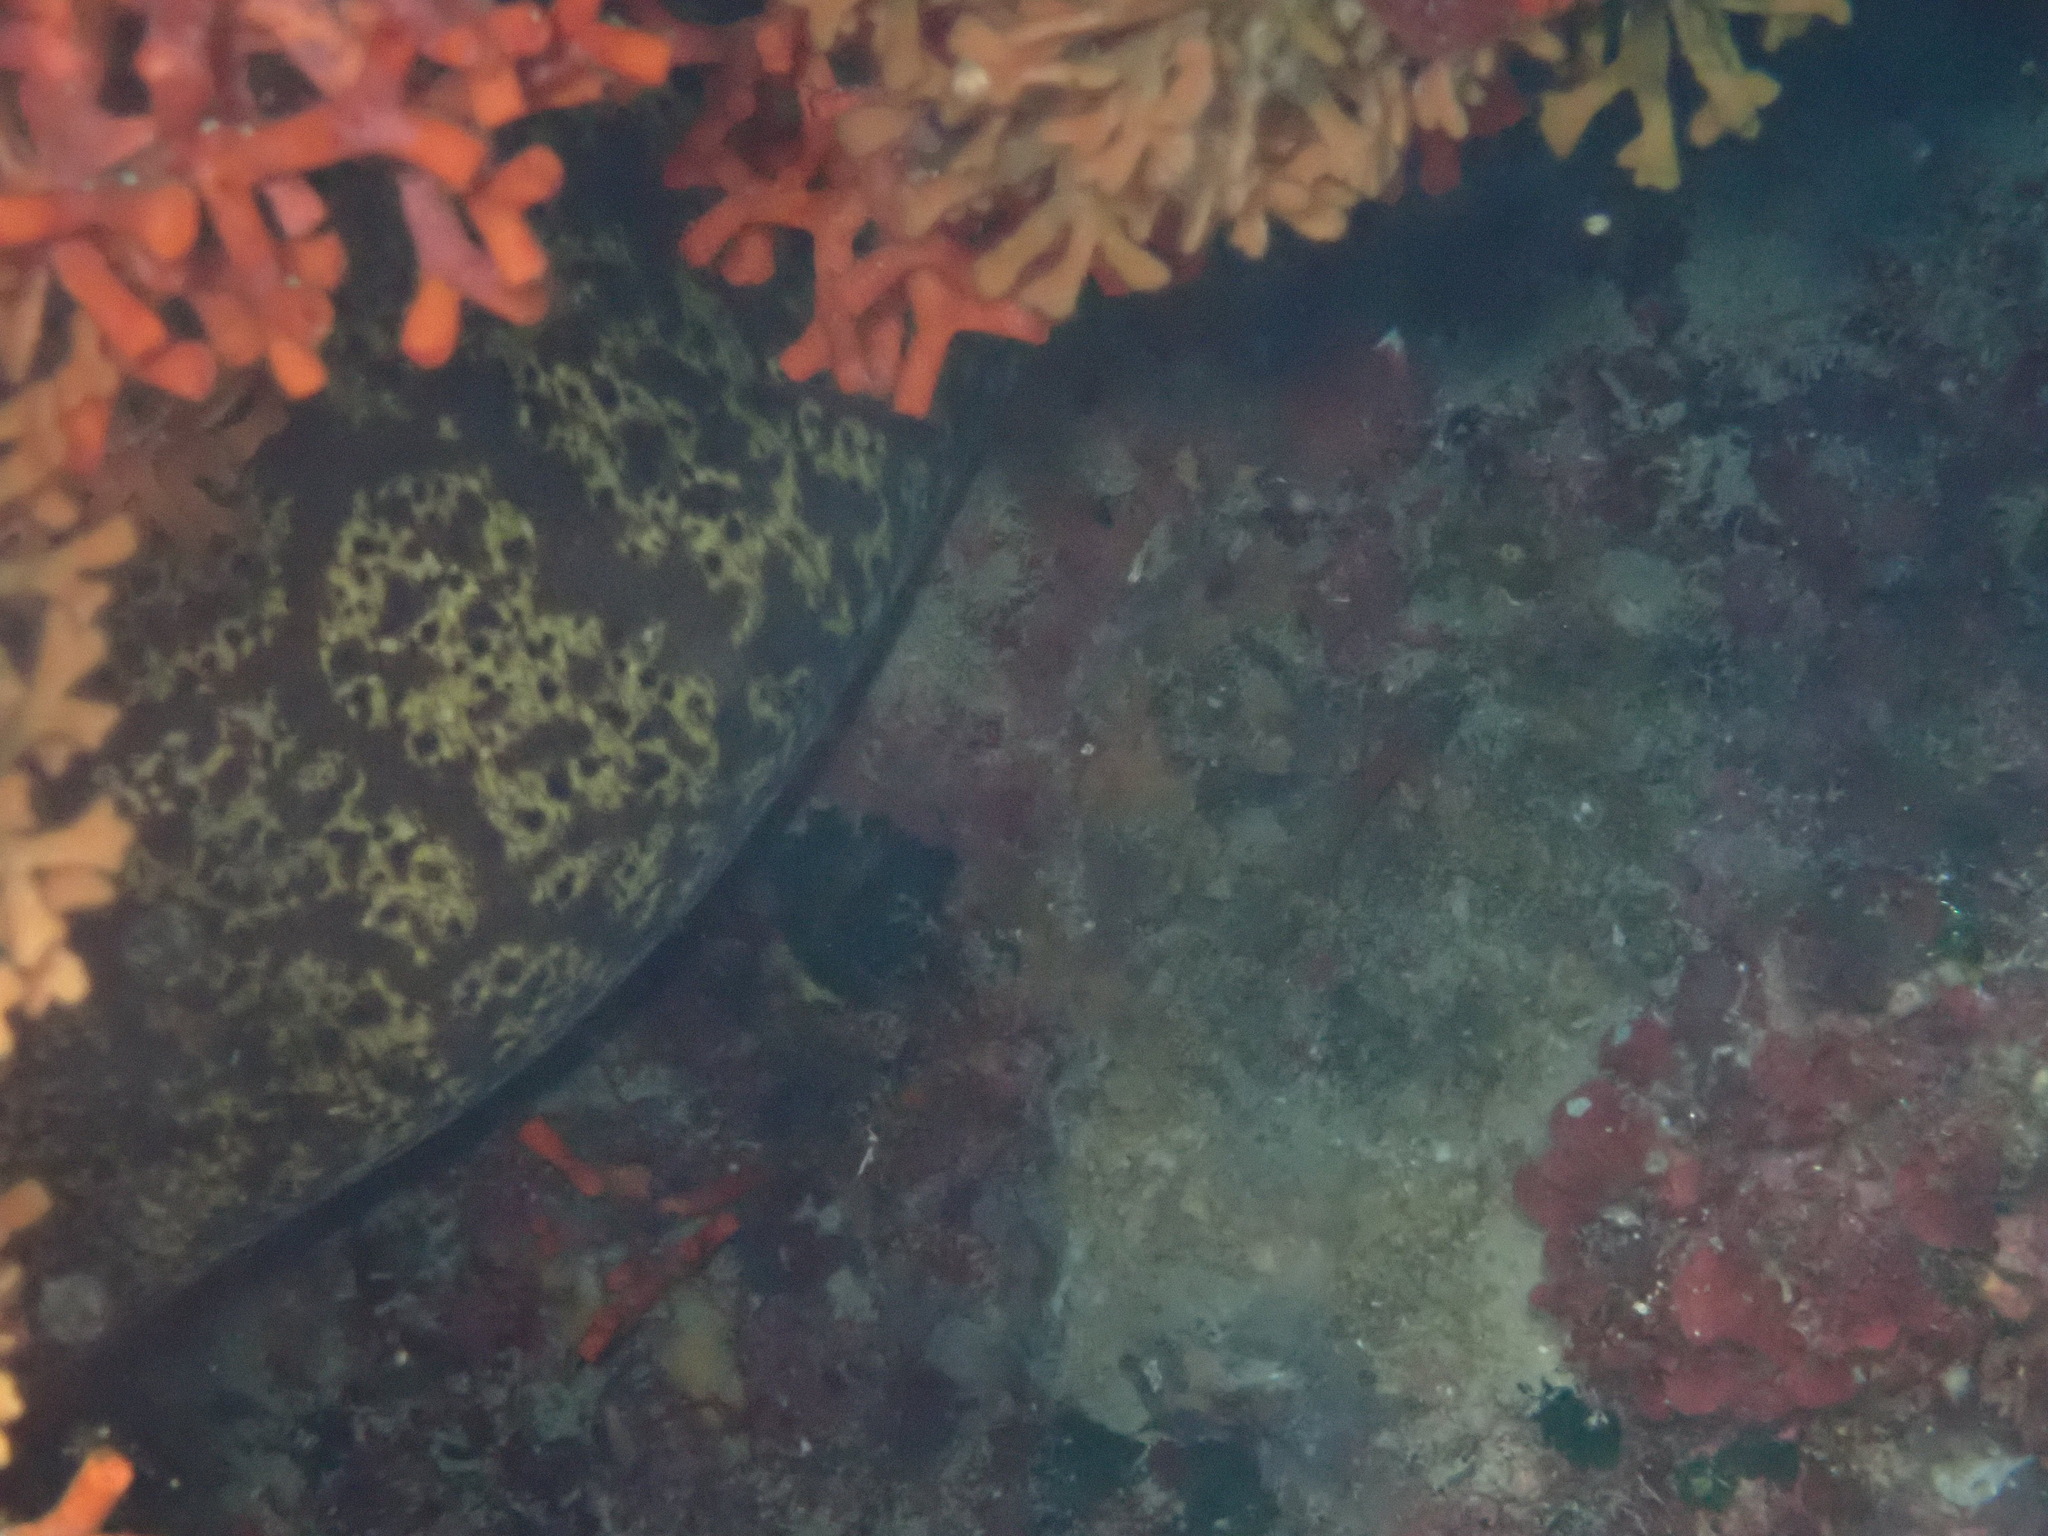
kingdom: Animalia
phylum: Chordata
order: Anguilliformes
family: Muraenidae
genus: Muraena
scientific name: Muraena helena
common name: Mediterranean moray
